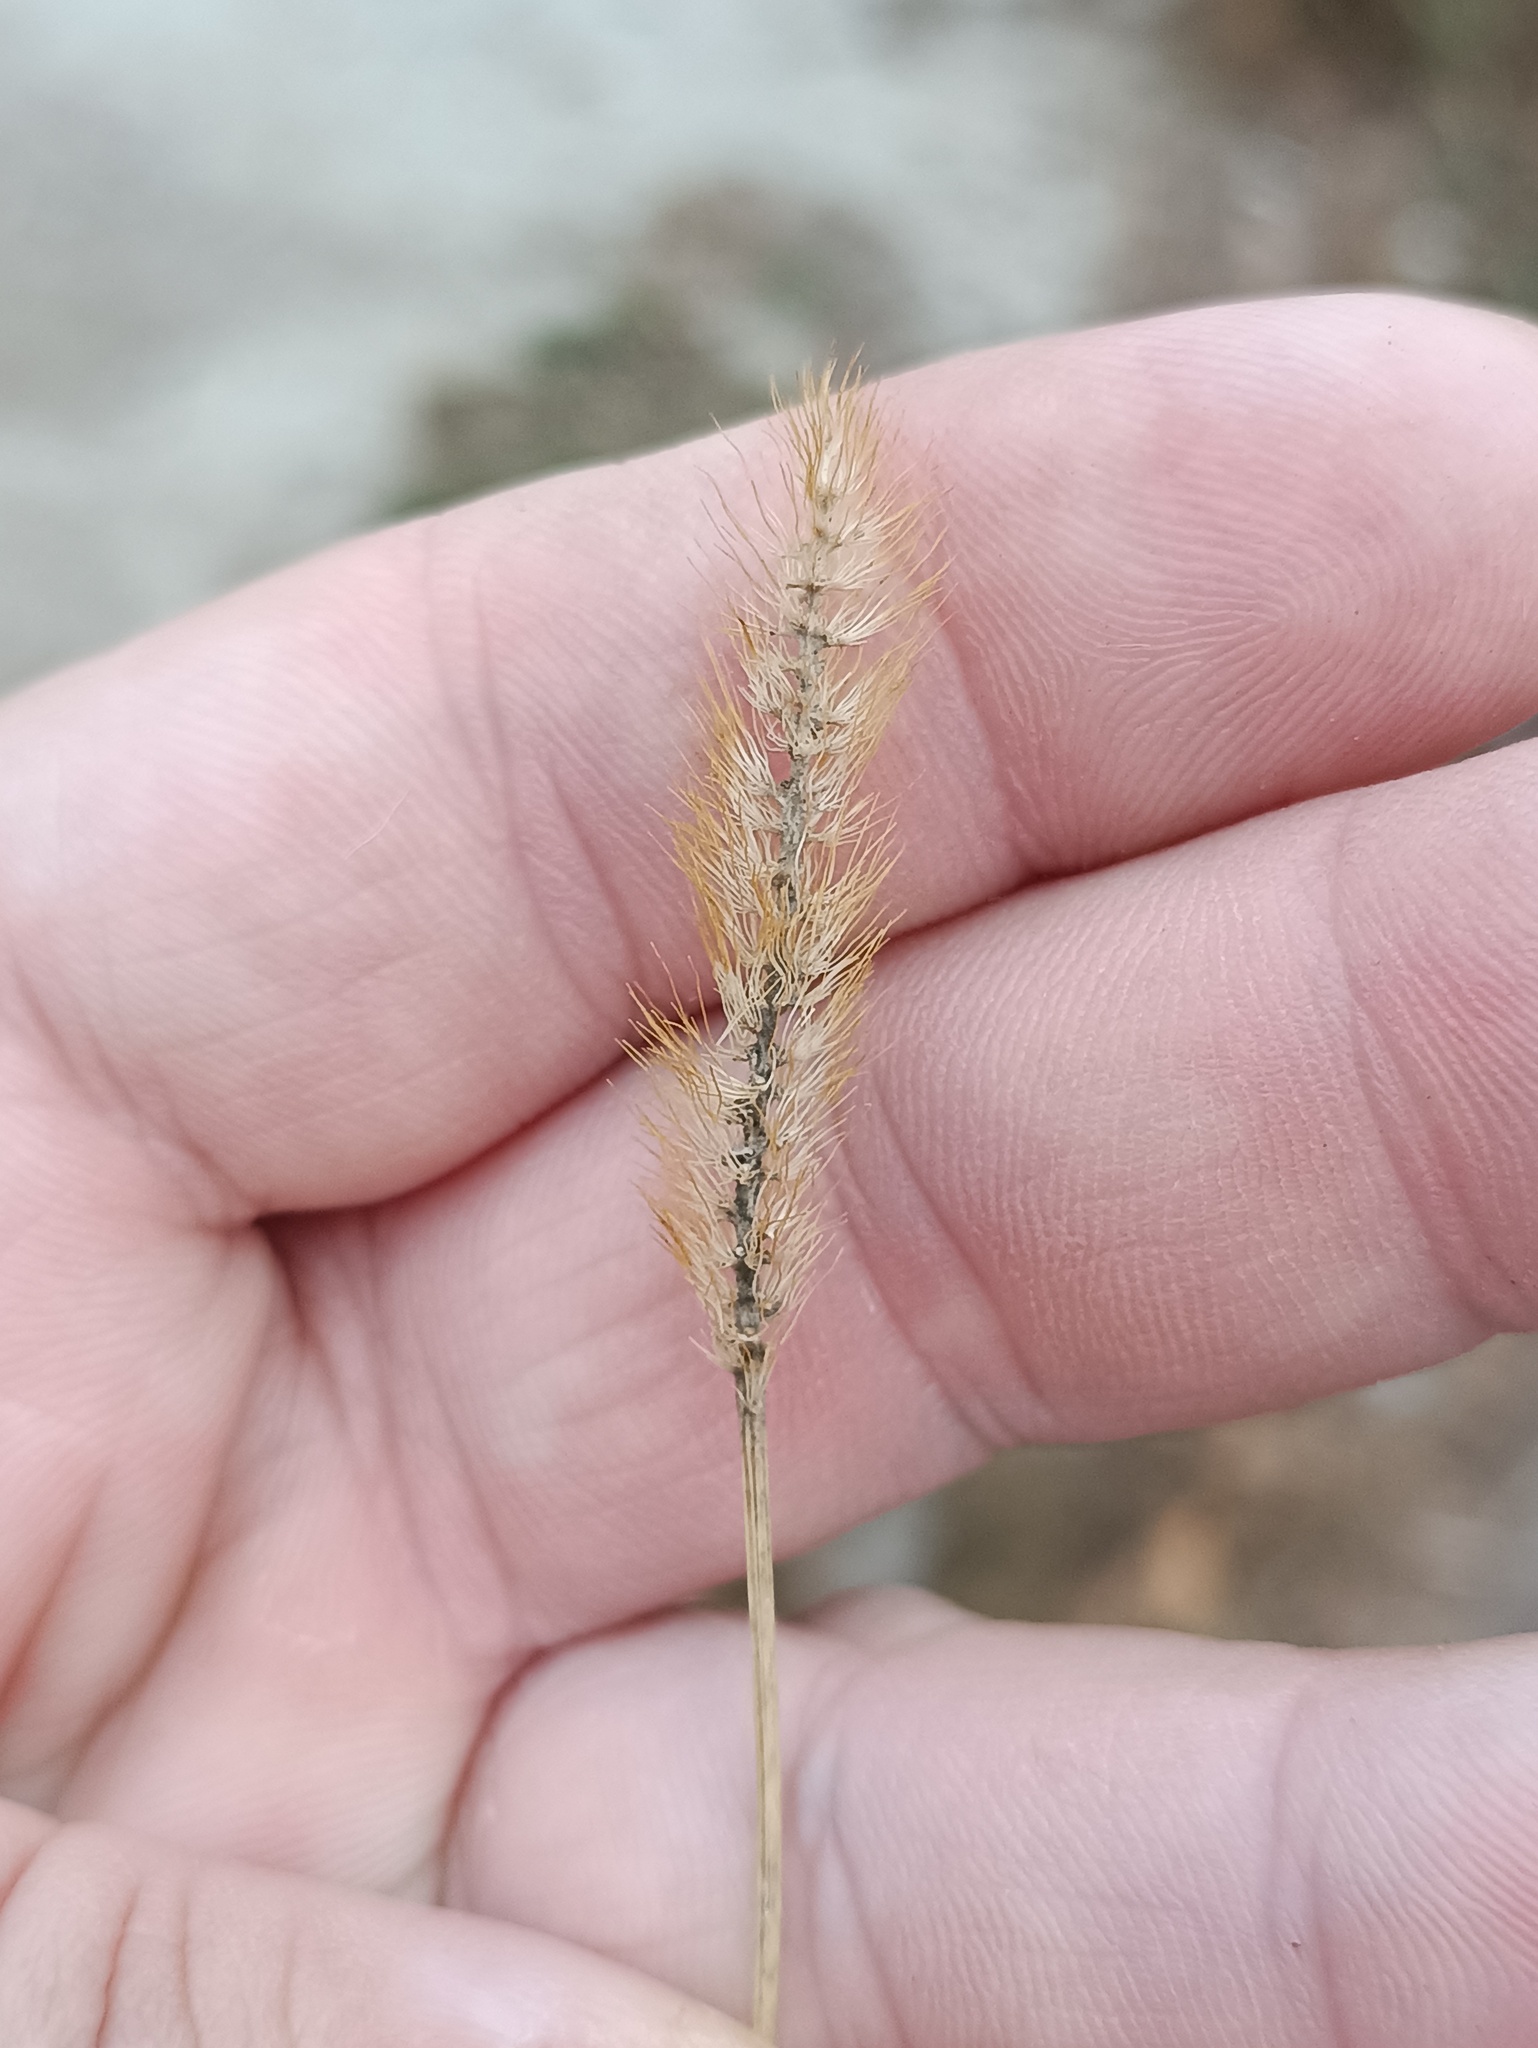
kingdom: Plantae
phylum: Tracheophyta
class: Liliopsida
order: Poales
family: Poaceae
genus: Setaria
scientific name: Setaria pumila
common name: Yellow bristle-grass
